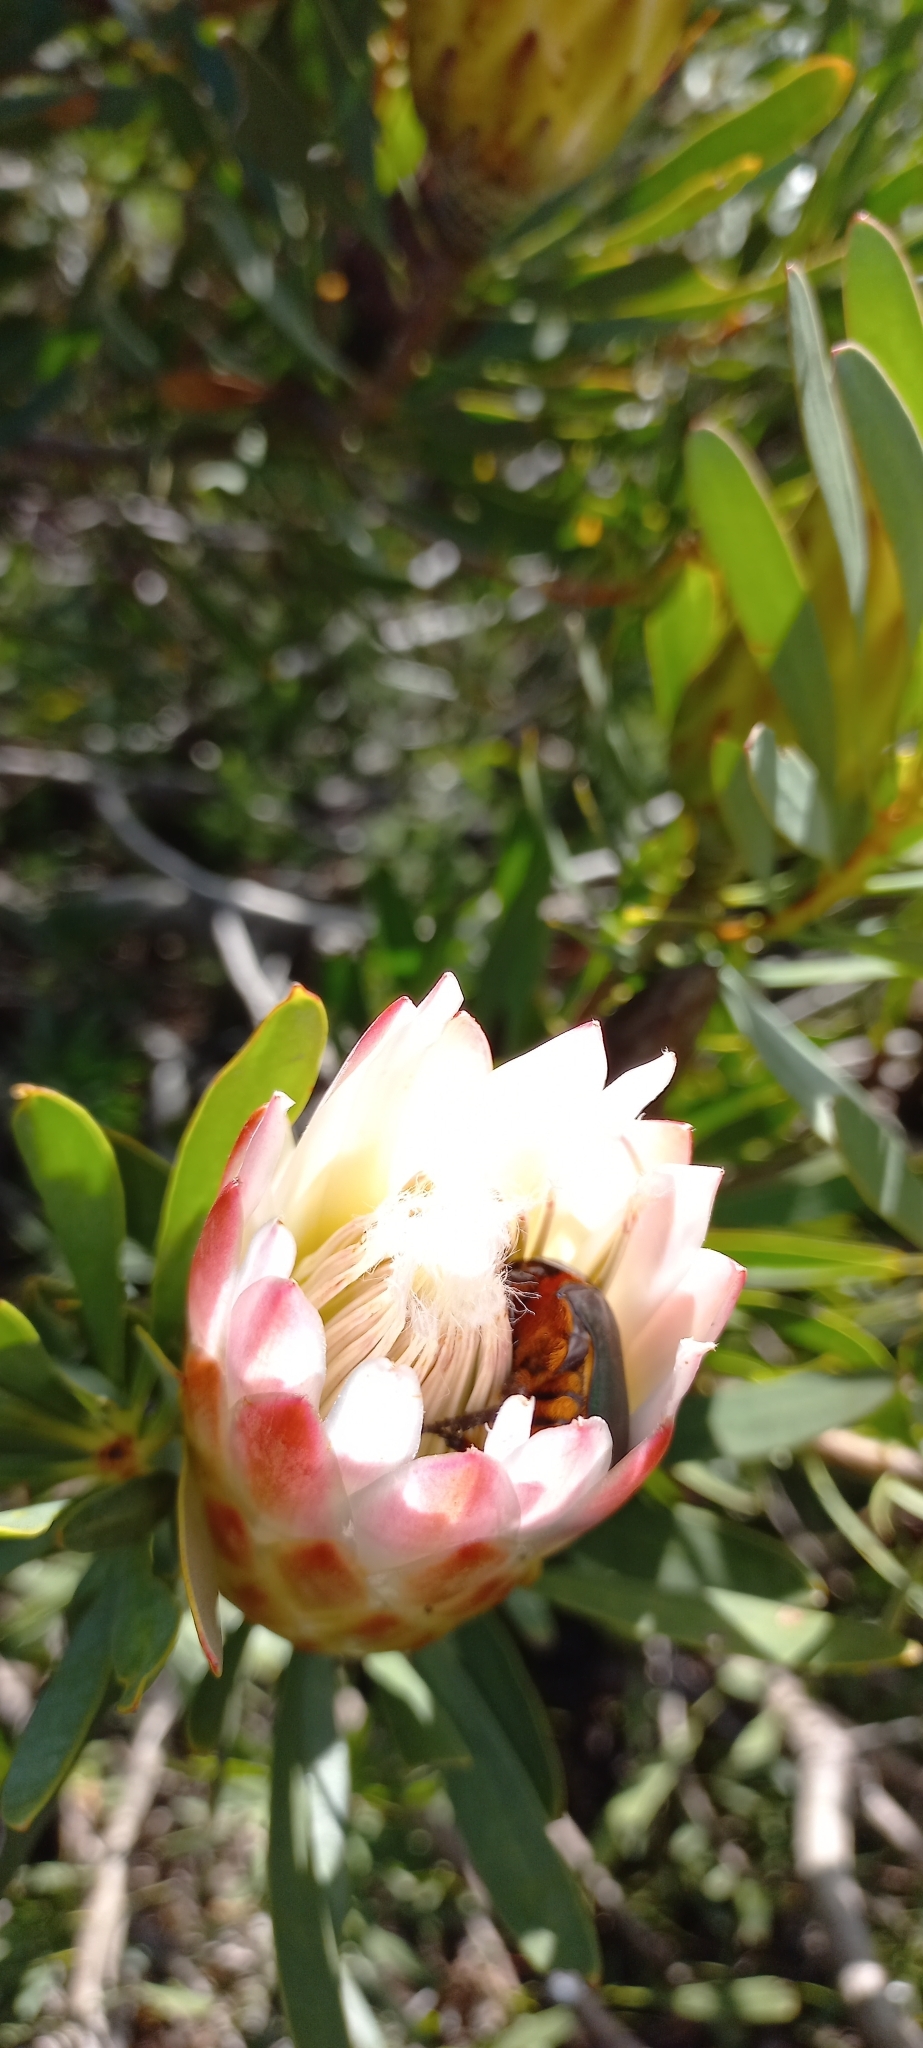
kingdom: Animalia
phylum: Arthropoda
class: Insecta
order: Coleoptera
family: Scarabaeidae
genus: Trichostetha
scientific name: Trichostetha fascicularis
